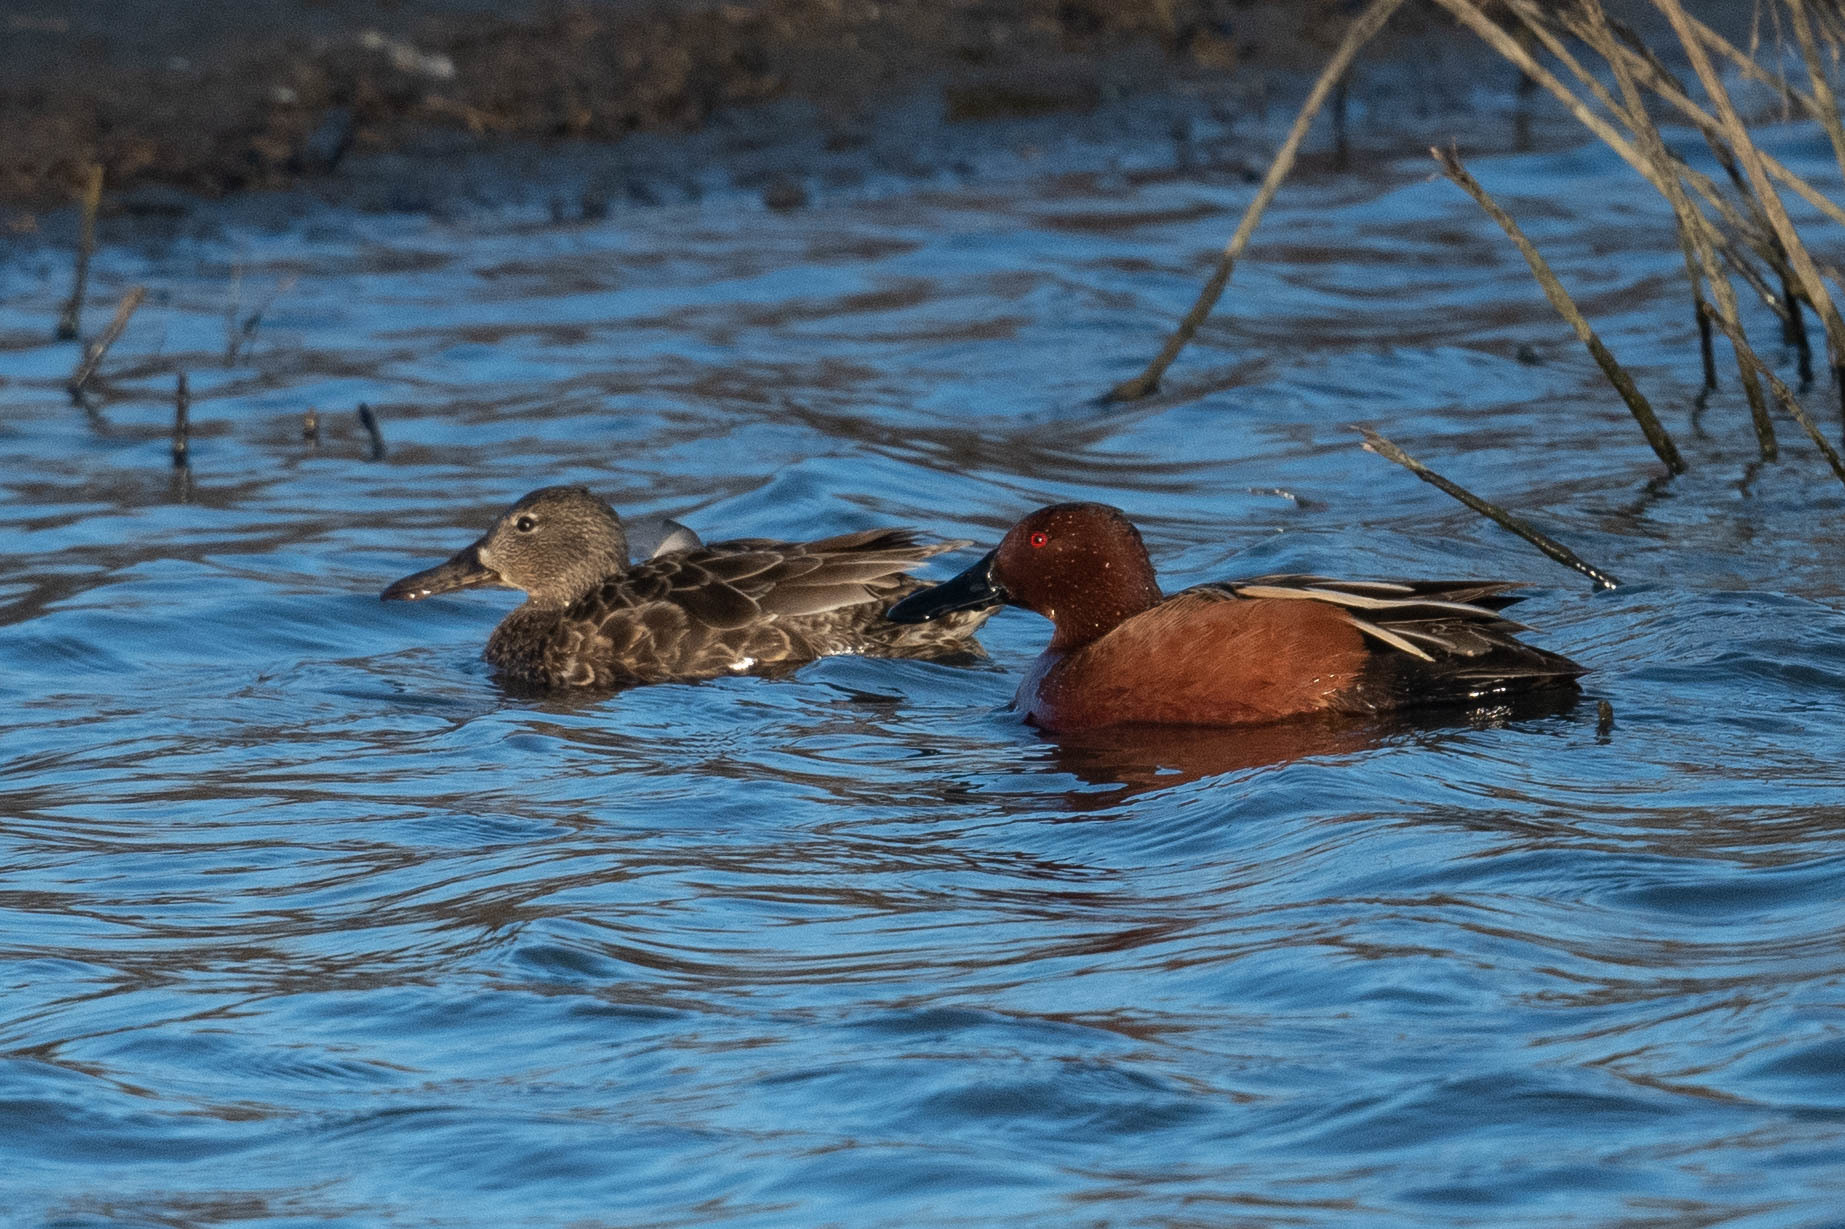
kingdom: Animalia
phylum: Chordata
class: Aves
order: Anseriformes
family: Anatidae
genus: Spatula
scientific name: Spatula cyanoptera
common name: Cinnamon teal
